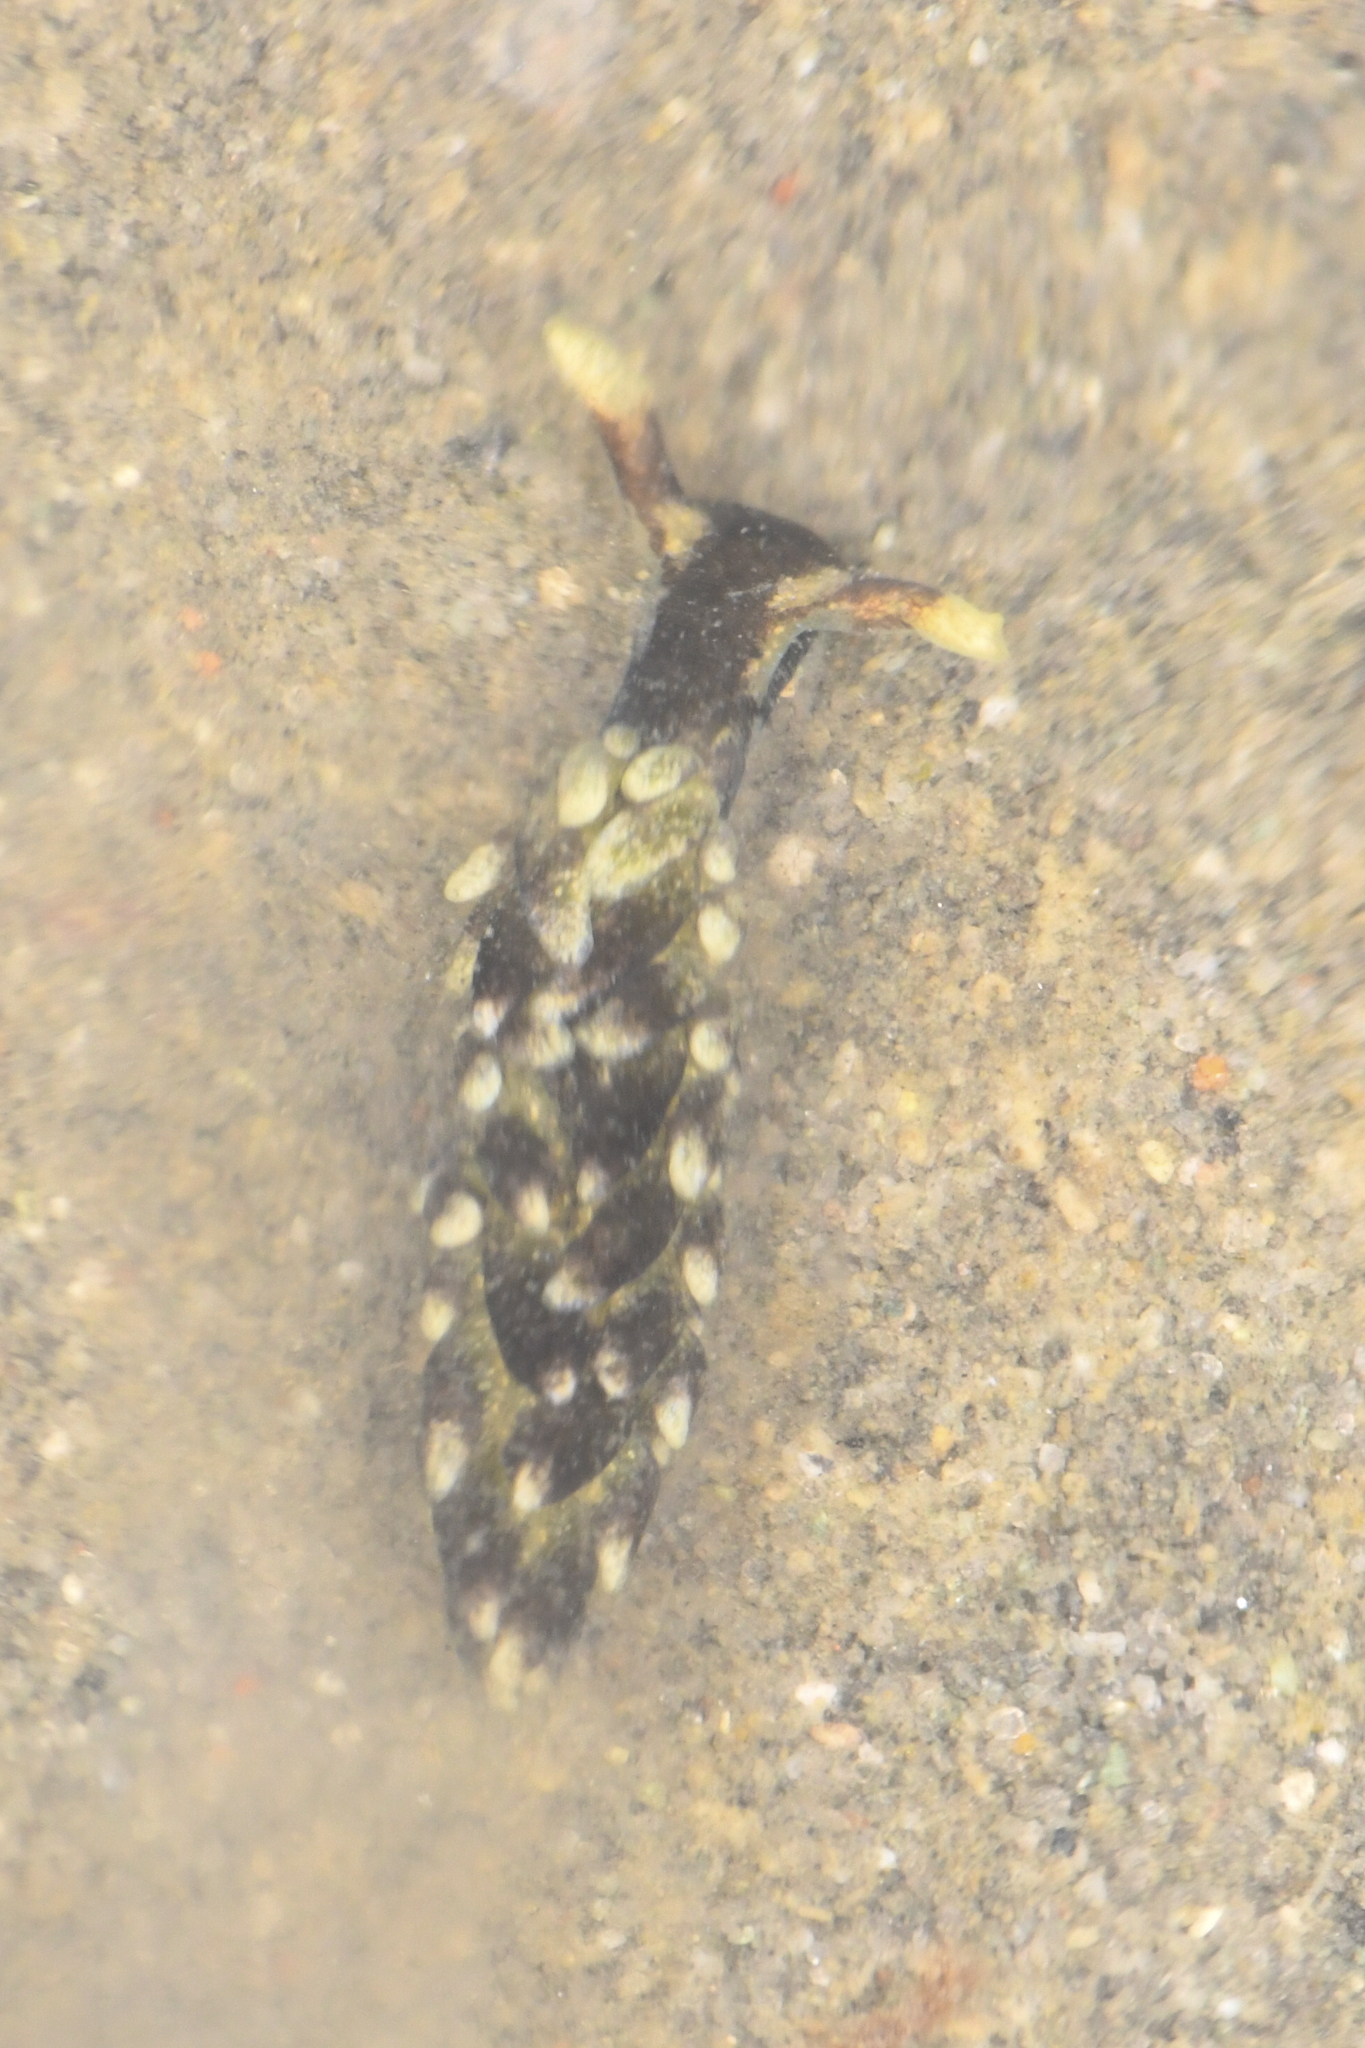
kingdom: Animalia
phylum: Mollusca
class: Gastropoda
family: Hermaeidae
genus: Aplysiopsis
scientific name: Aplysiopsis enteromorphae
